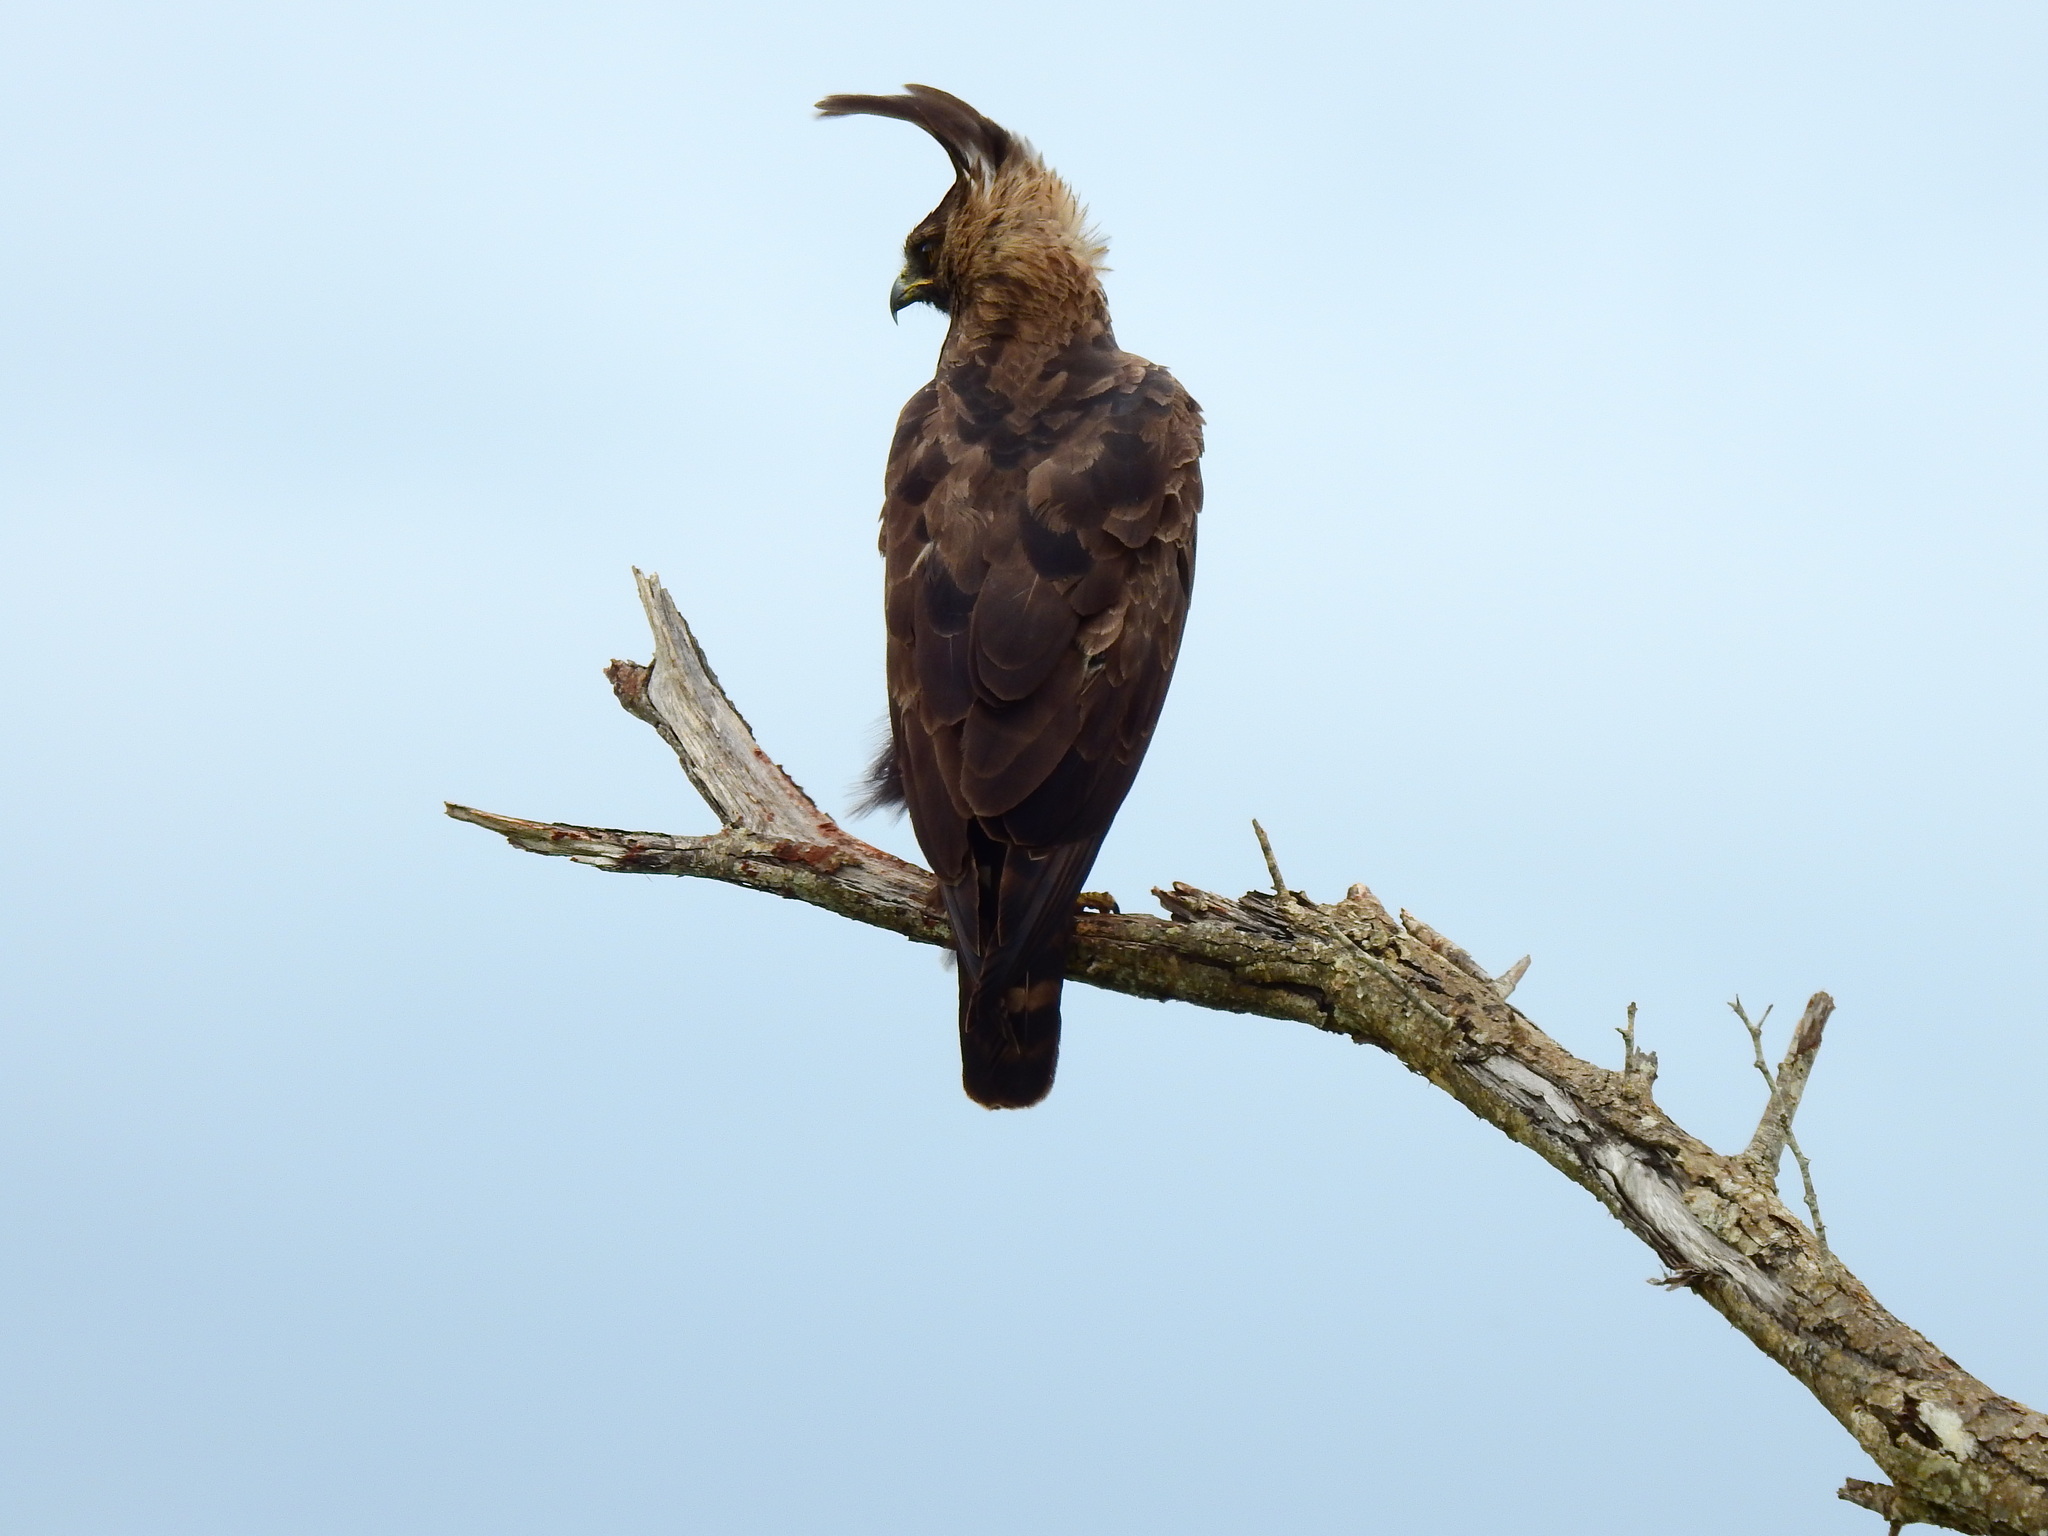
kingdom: Animalia
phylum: Chordata
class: Aves
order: Accipitriformes
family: Accipitridae
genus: Lophaetus
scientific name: Lophaetus occipitalis
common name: Long-crested eagle
